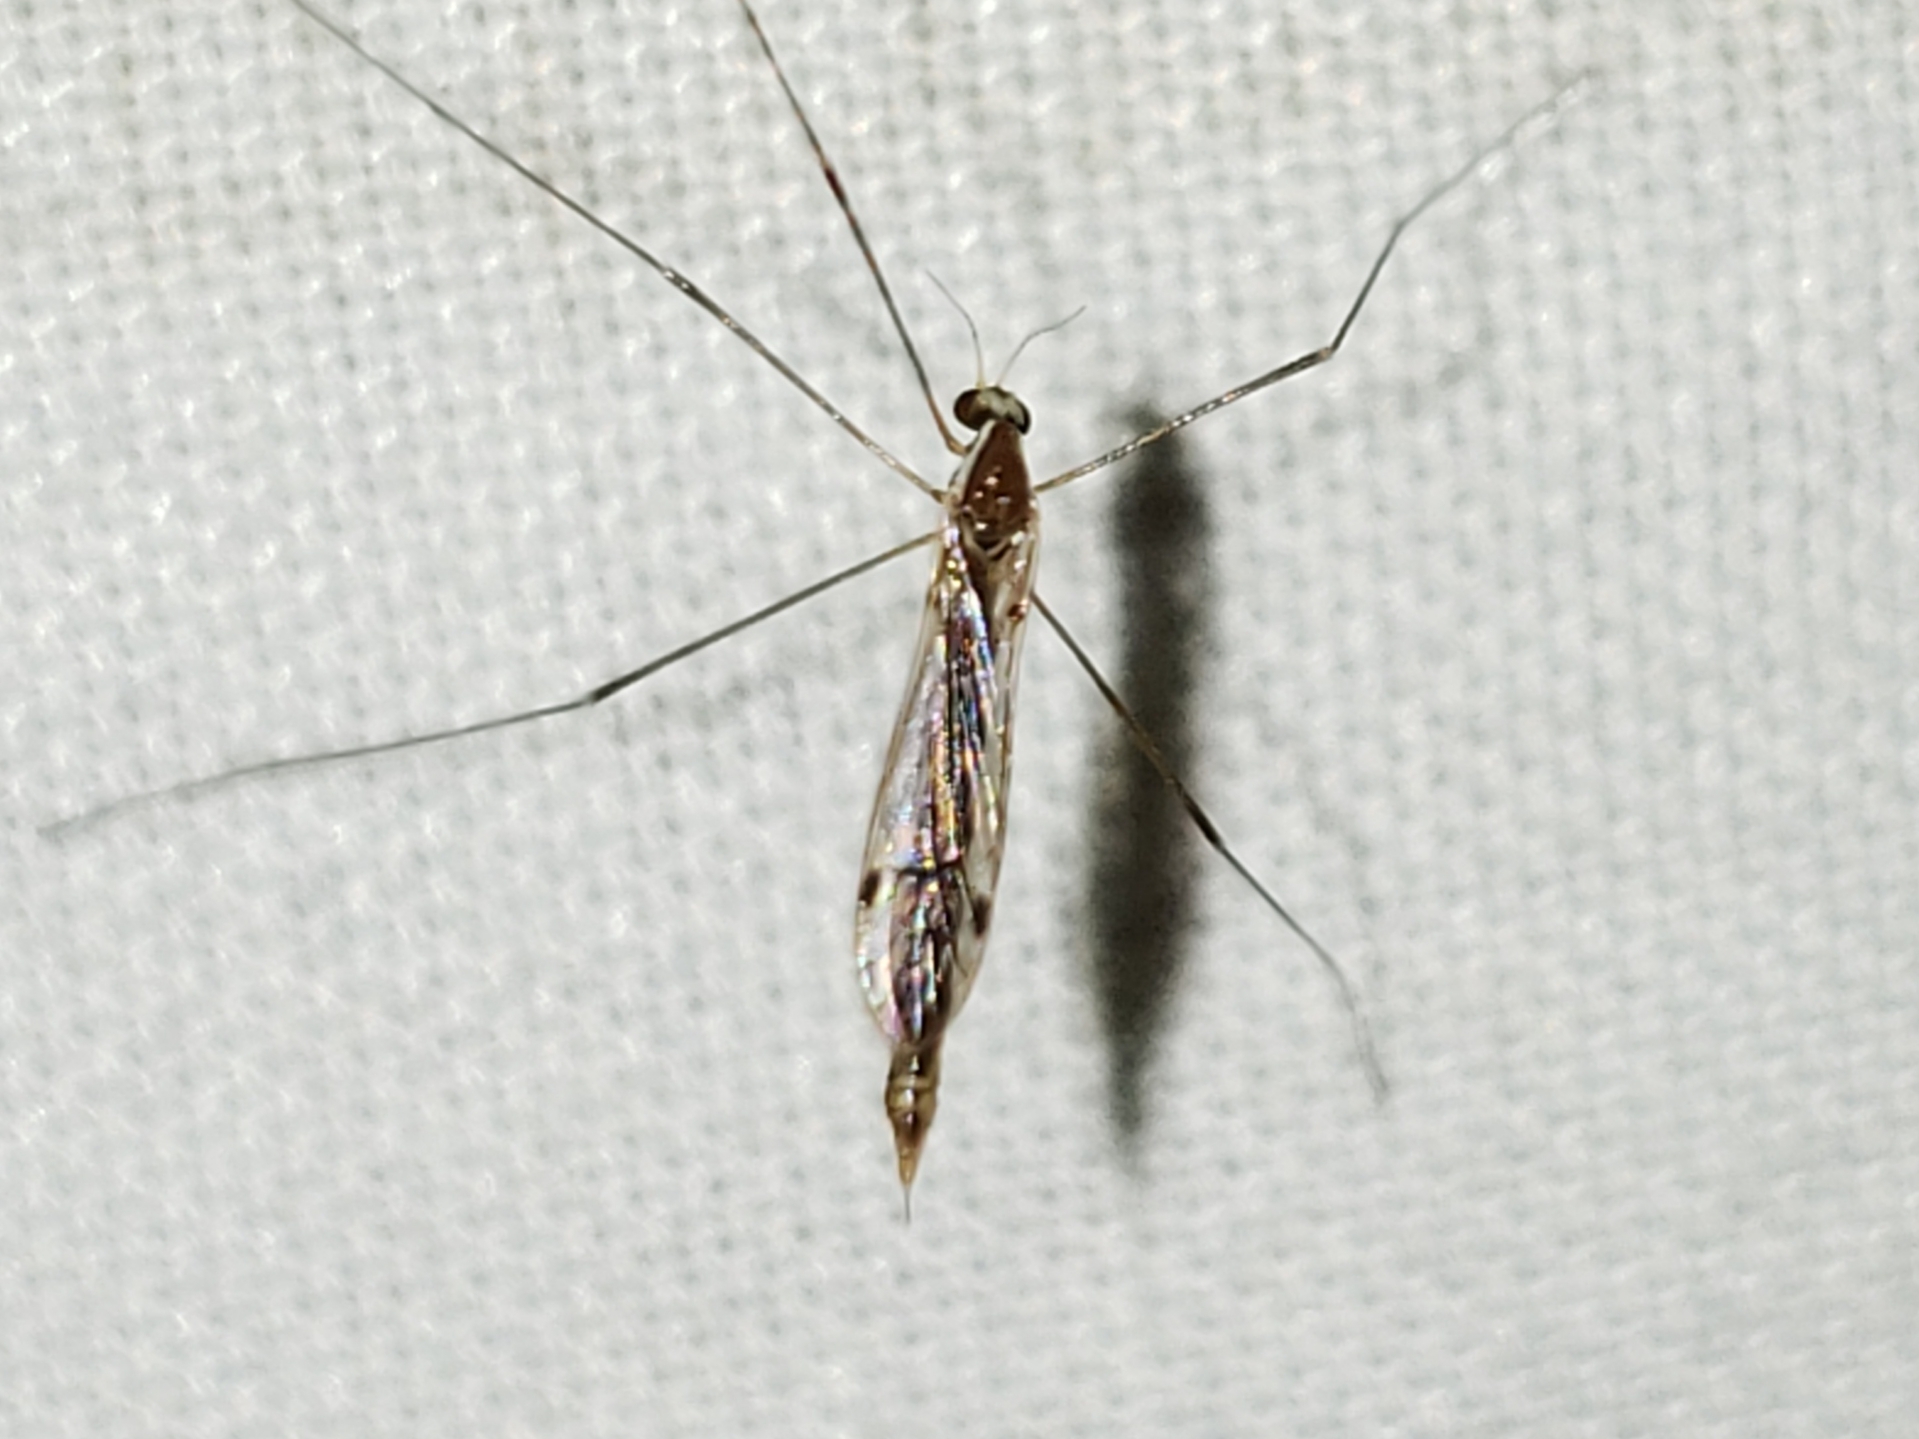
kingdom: Animalia
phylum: Arthropoda
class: Insecta
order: Diptera
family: Limoniidae
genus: Gonomyia
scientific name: Gonomyia pleuralis
